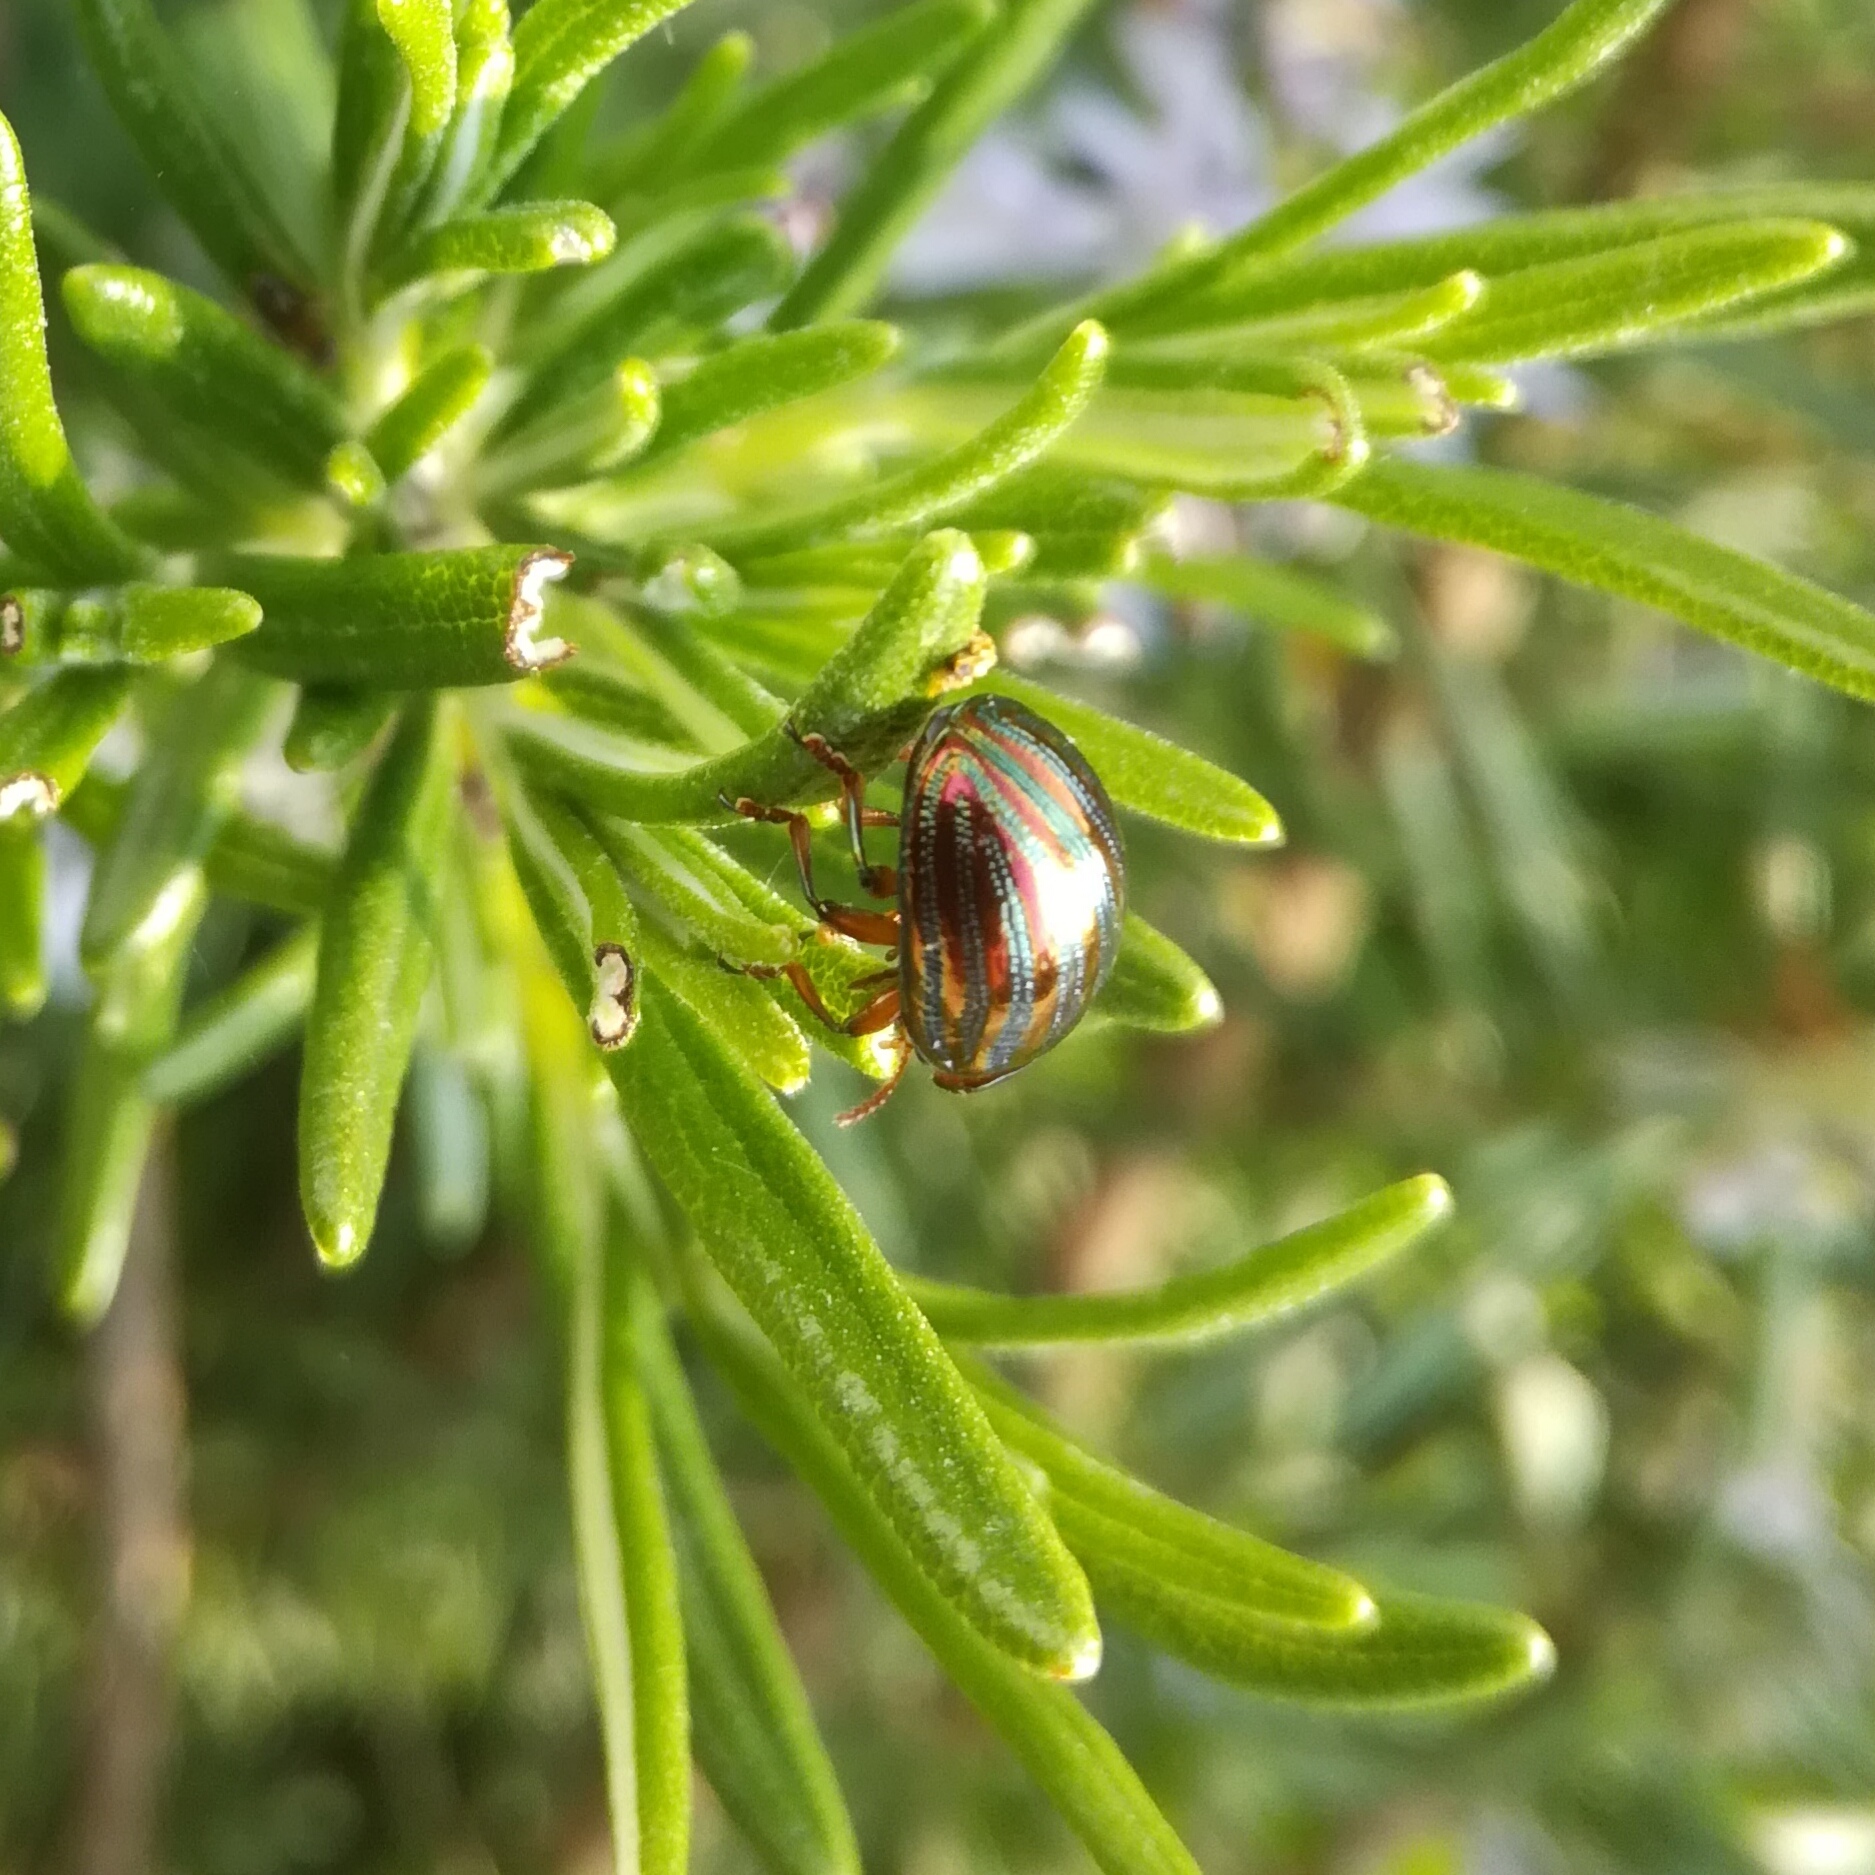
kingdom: Animalia
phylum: Arthropoda
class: Insecta
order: Coleoptera
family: Chrysomelidae
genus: Chrysolina
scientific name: Chrysolina americana
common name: Rosemary beetle
